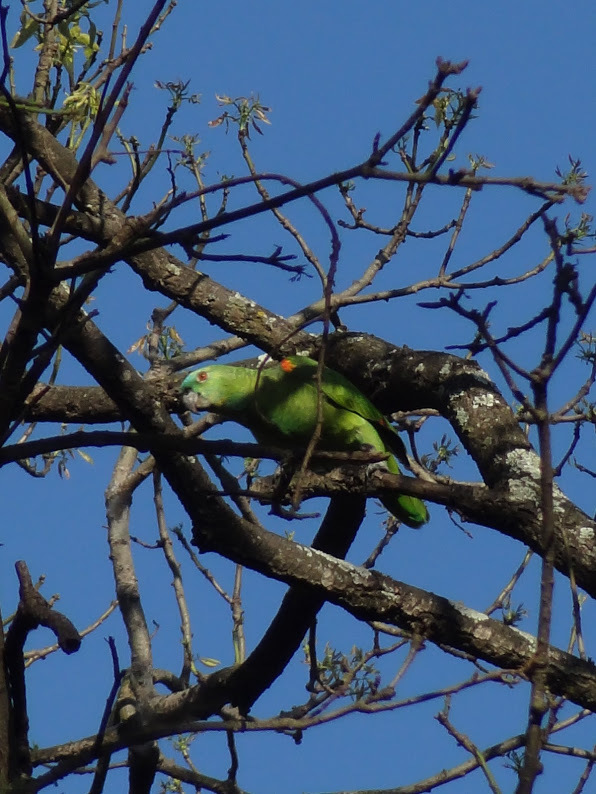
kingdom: Animalia
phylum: Chordata
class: Aves
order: Psittaciformes
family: Psittacidae
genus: Amazona
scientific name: Amazona aestiva
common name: Turquoise-fronted amazon
